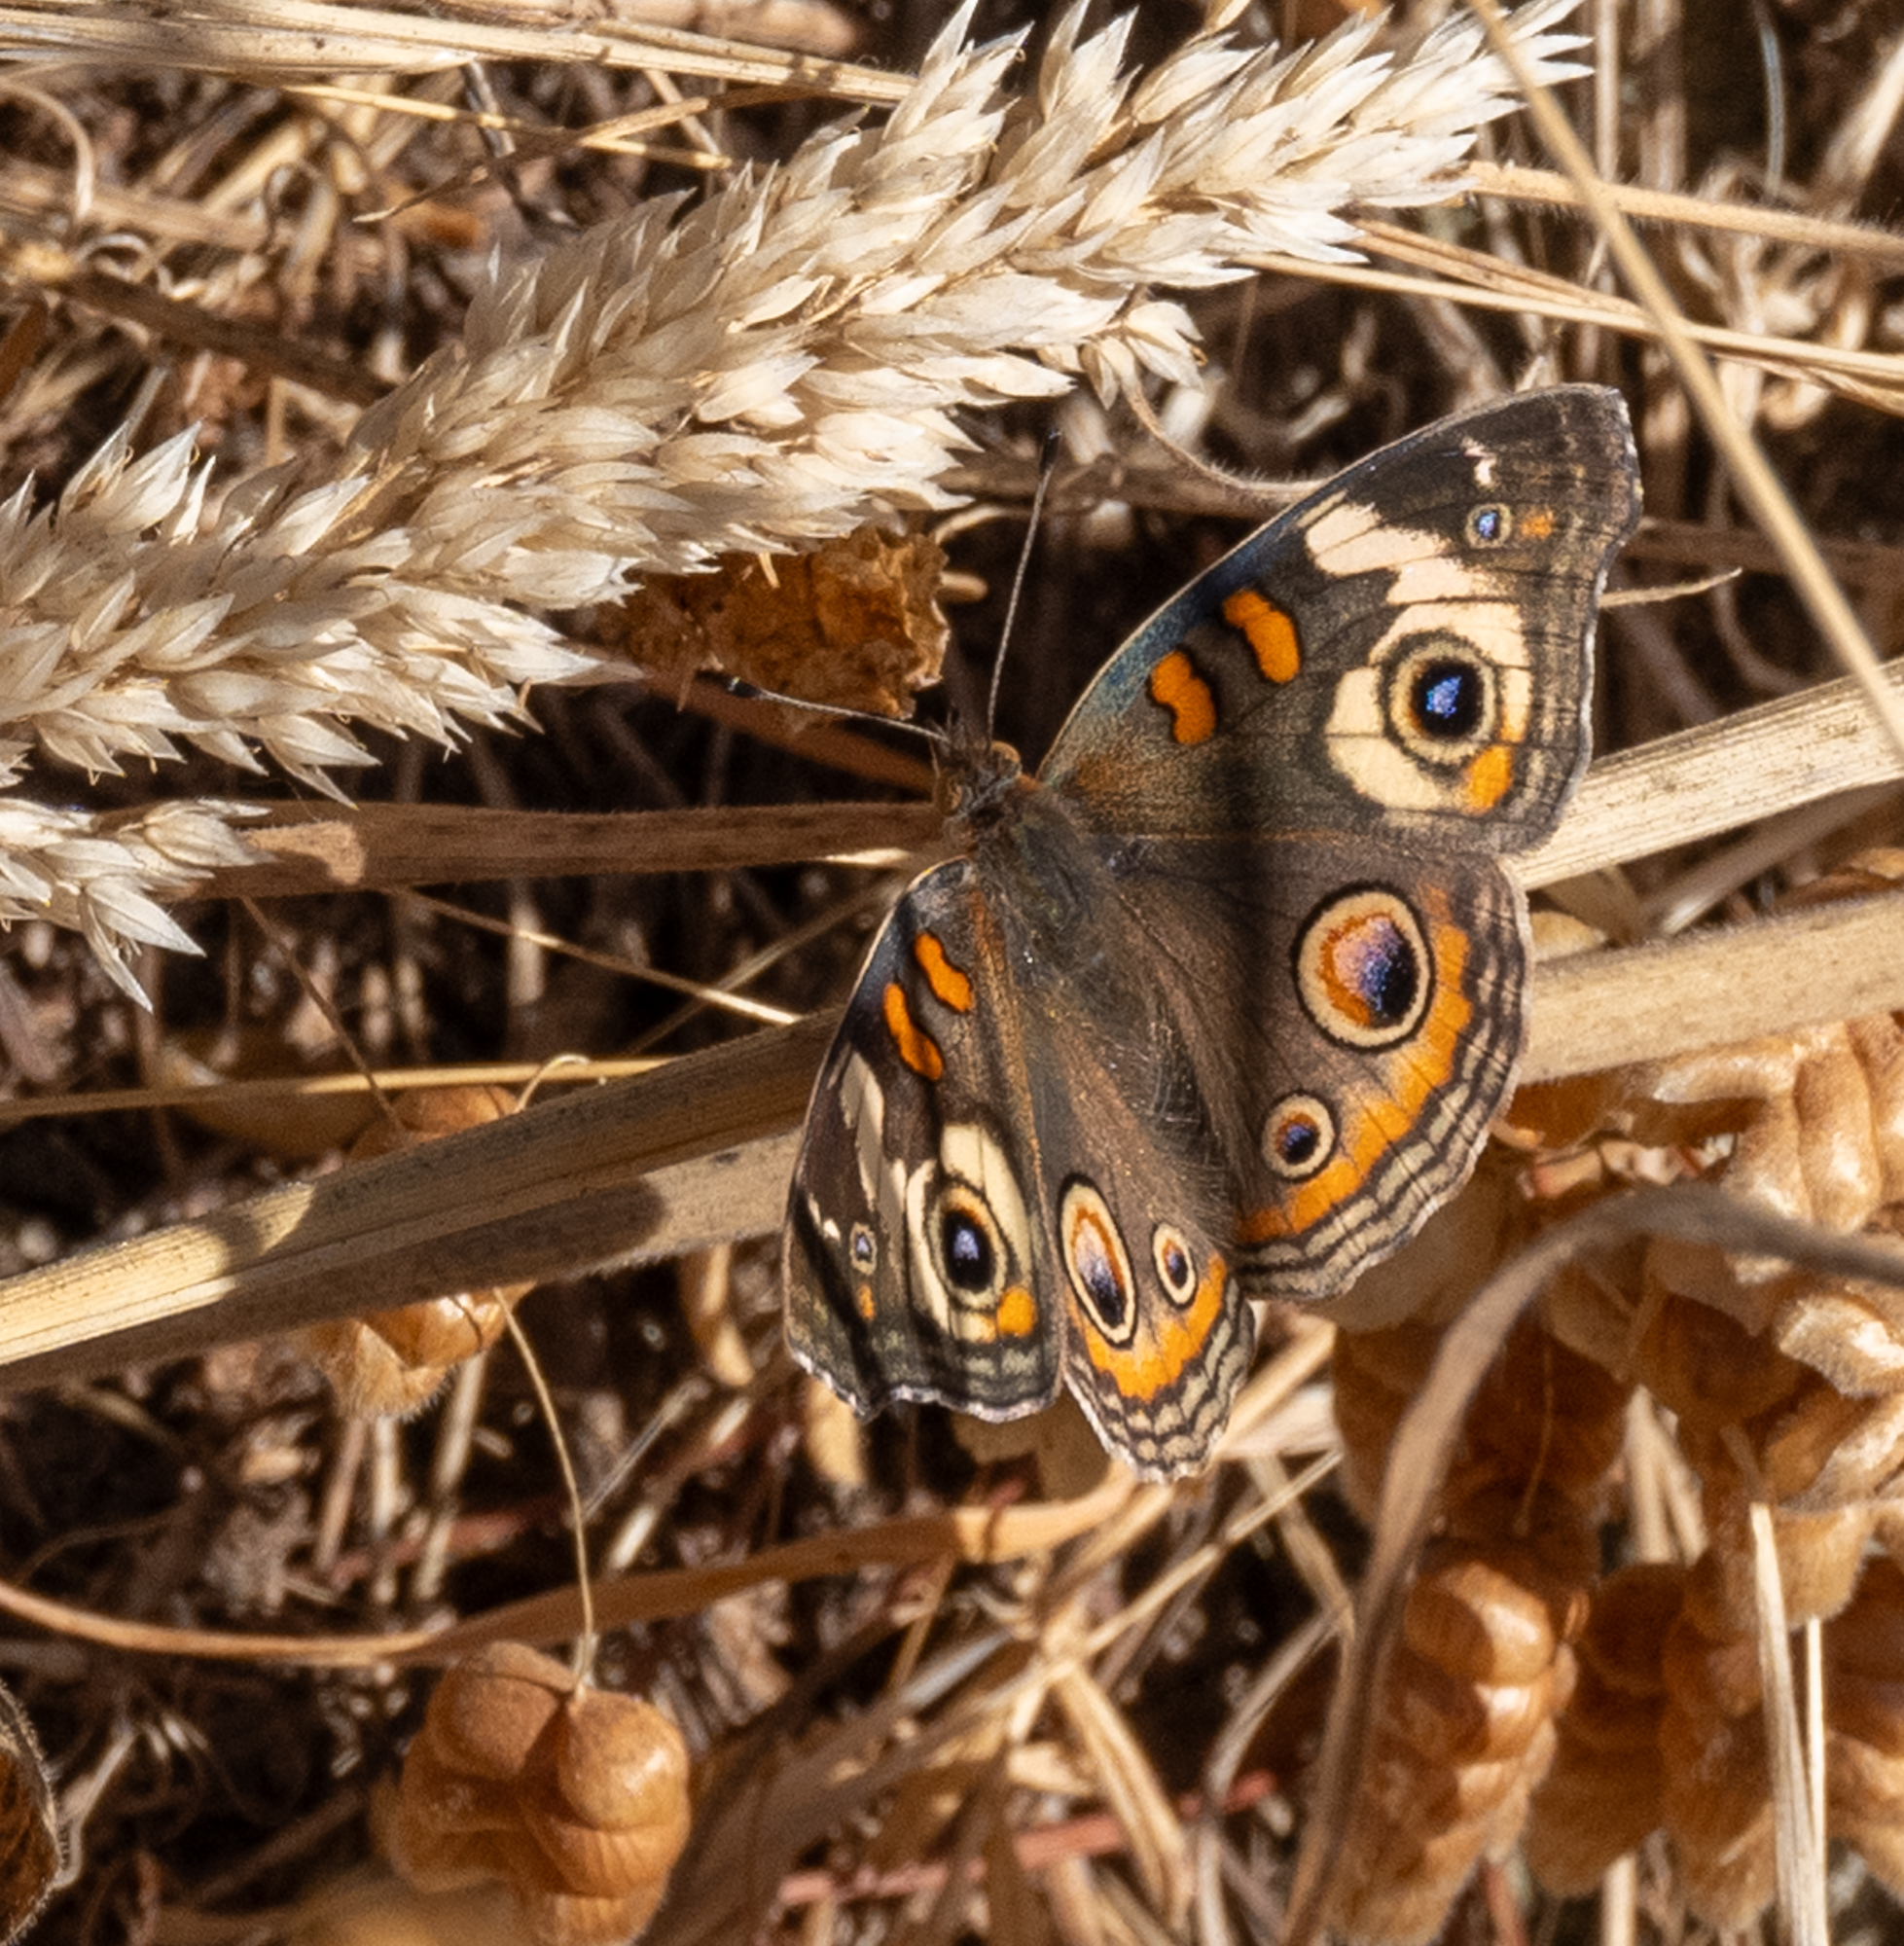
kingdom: Animalia
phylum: Arthropoda
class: Insecta
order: Lepidoptera
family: Nymphalidae
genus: Junonia
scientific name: Junonia grisea
